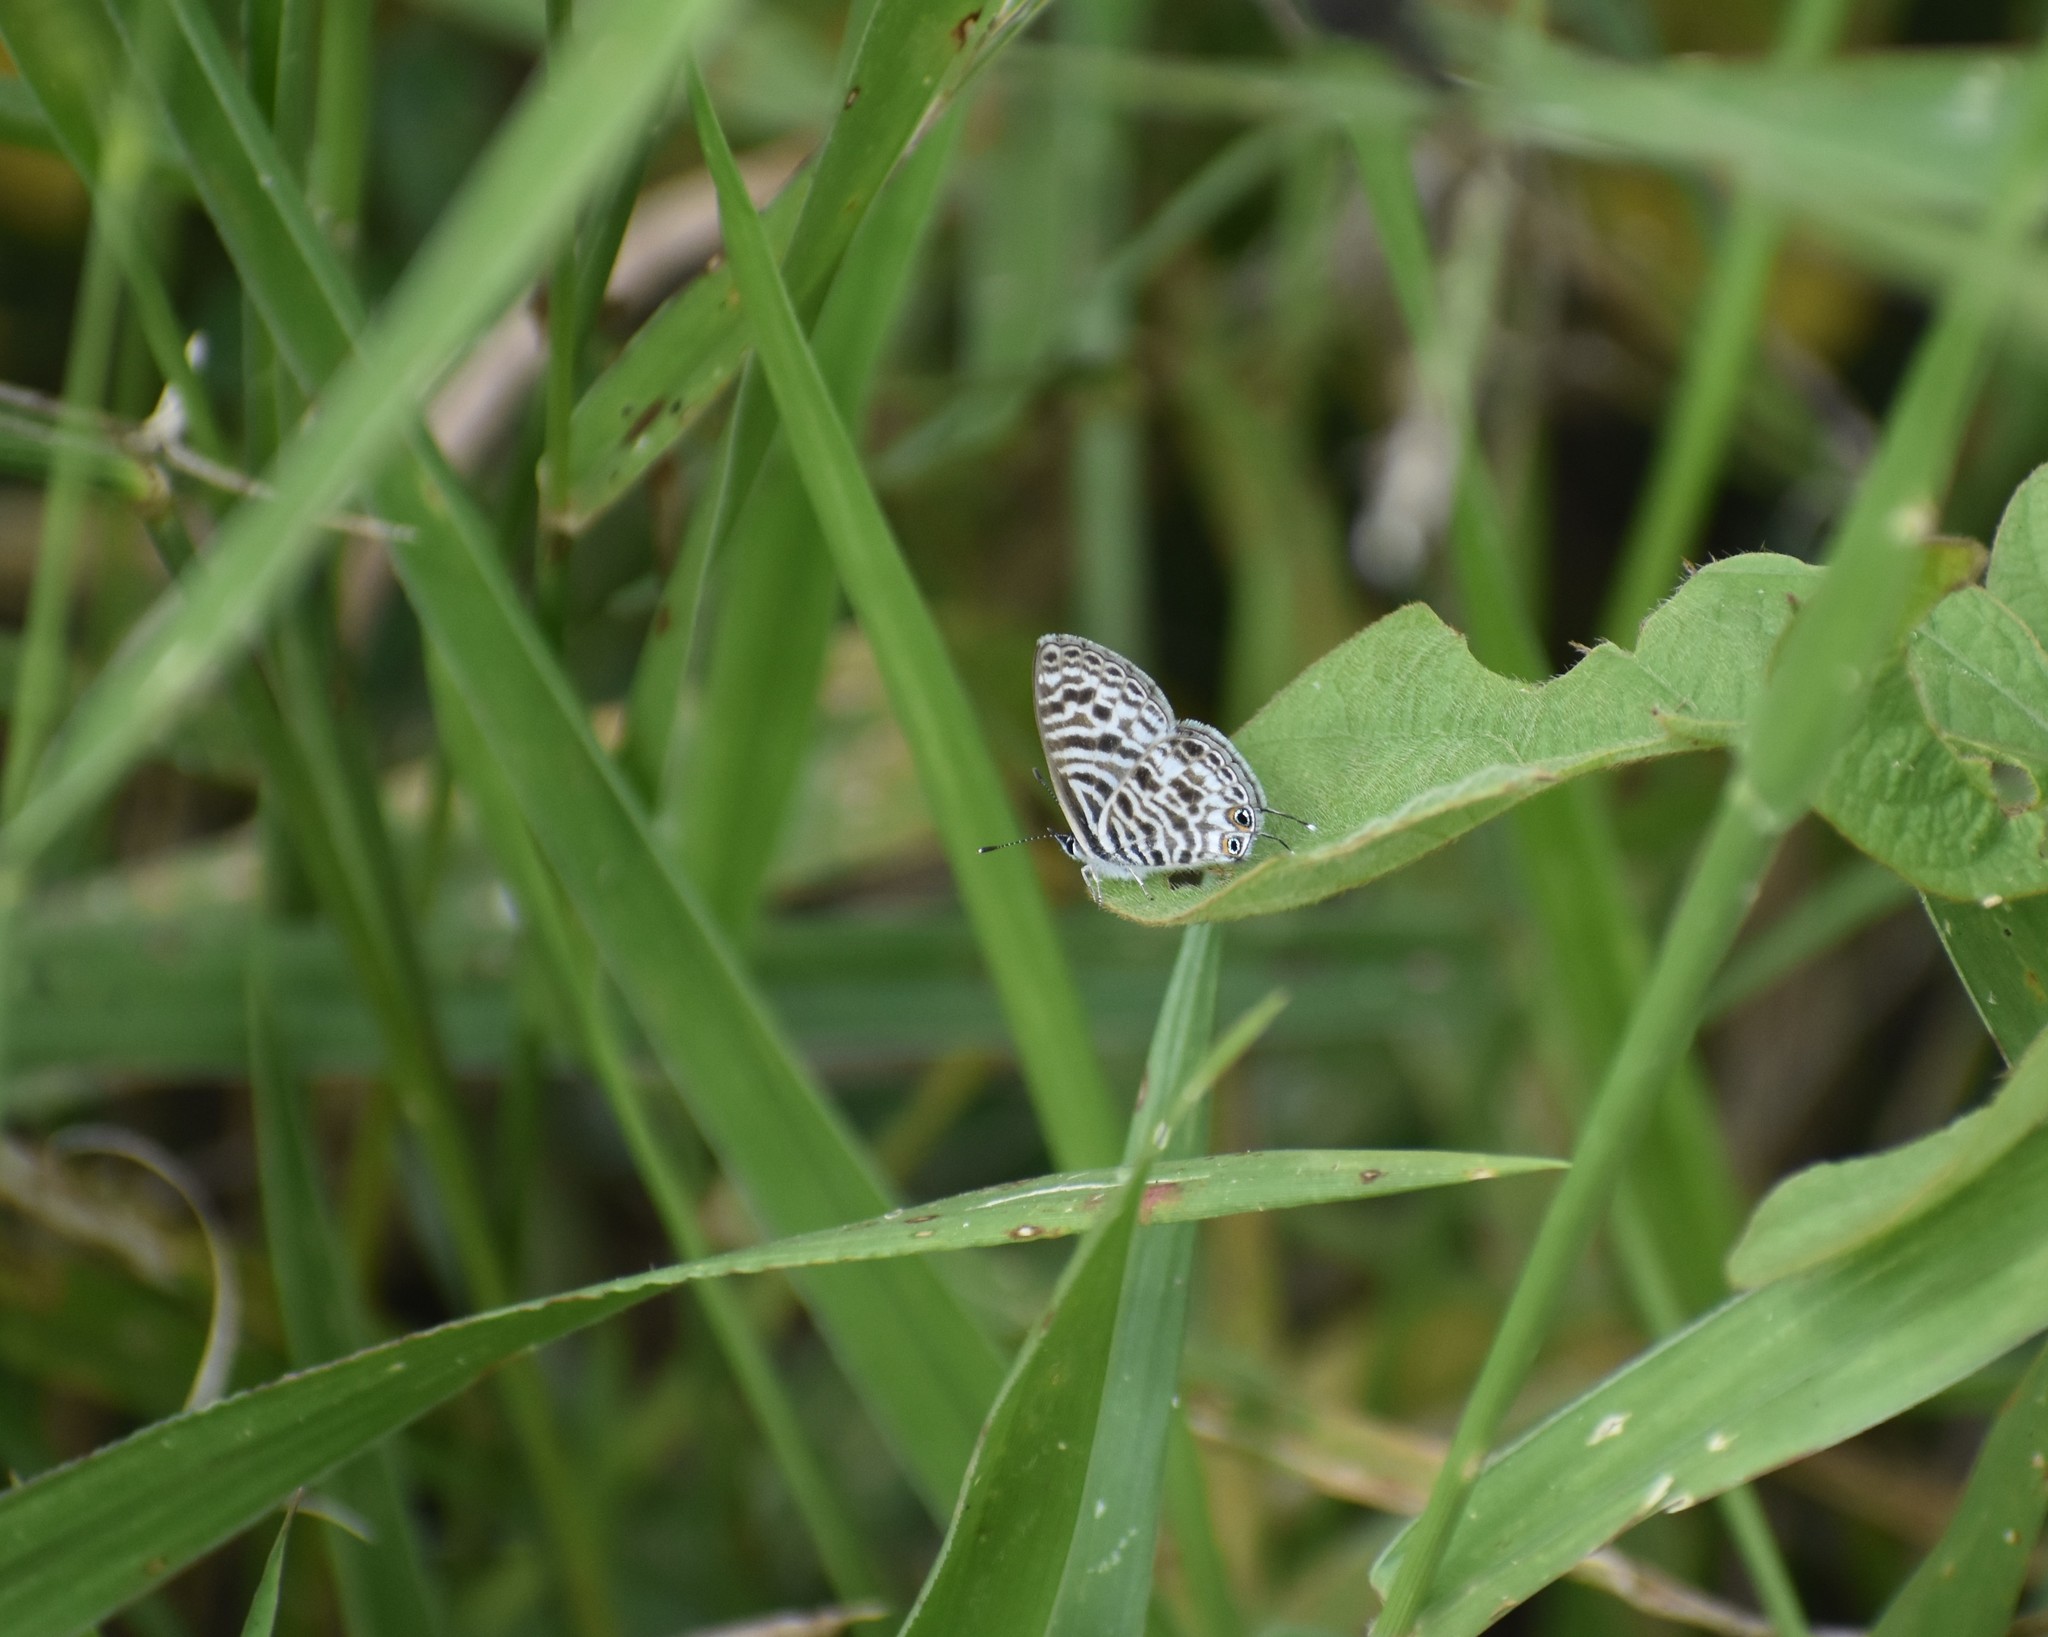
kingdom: Animalia
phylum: Arthropoda
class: Insecta
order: Lepidoptera
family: Lycaenidae
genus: Leptotes
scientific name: Leptotes
